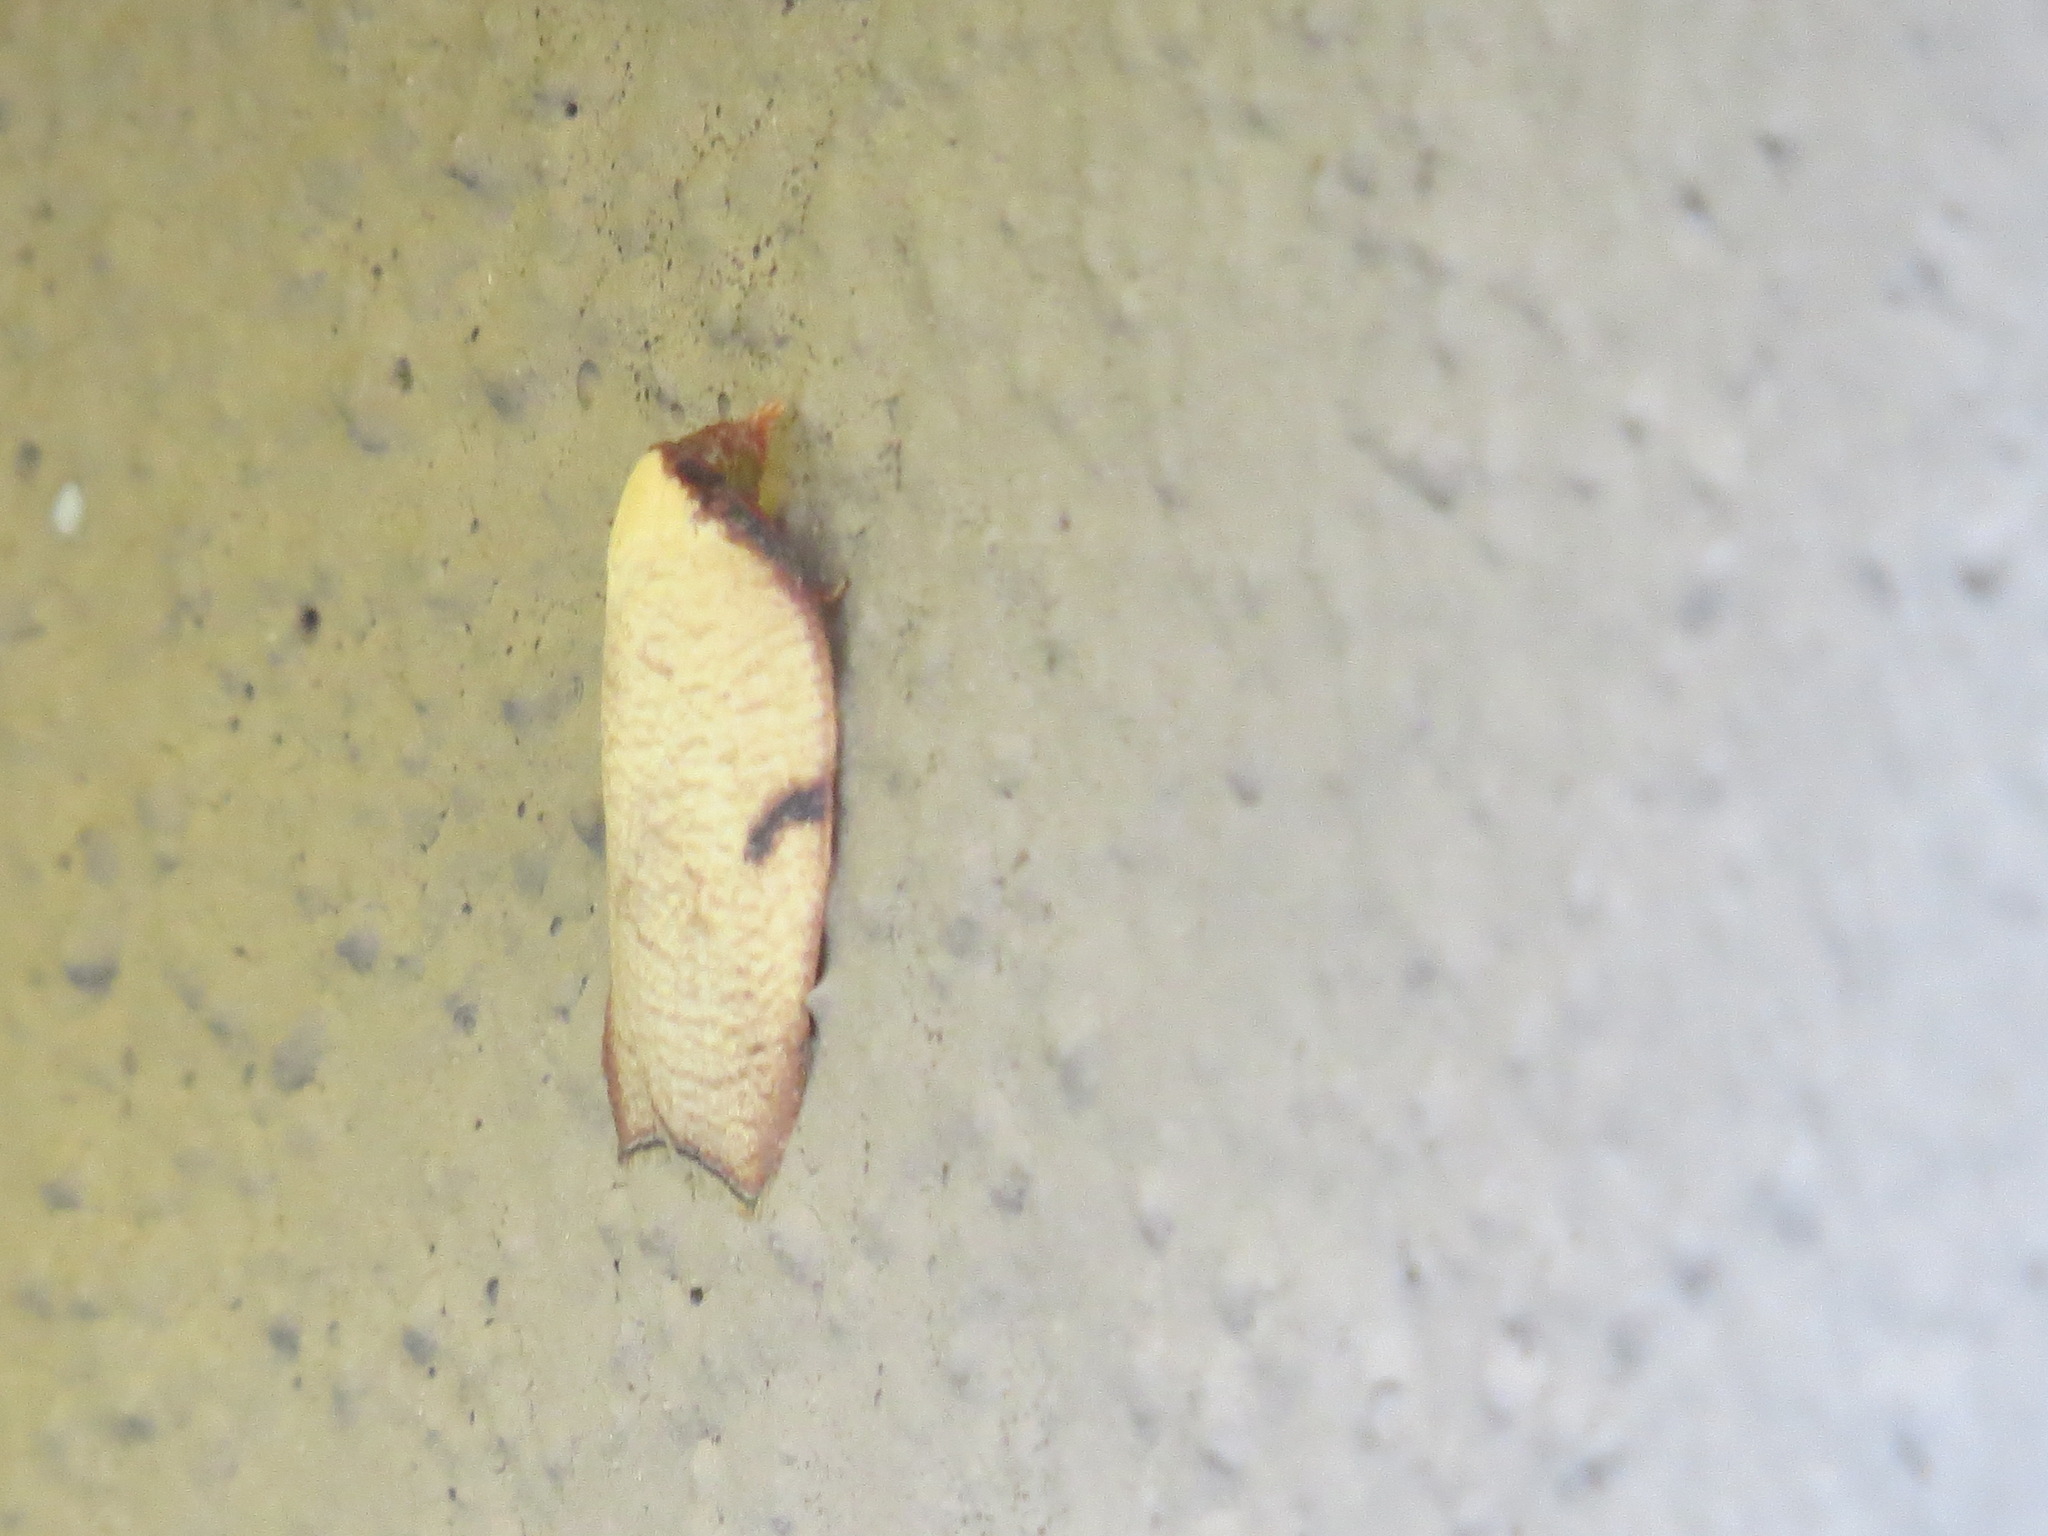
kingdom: Animalia
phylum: Arthropoda
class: Insecta
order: Lepidoptera
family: Tortricidae
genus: Amorbia
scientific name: Amorbia cuneanum
